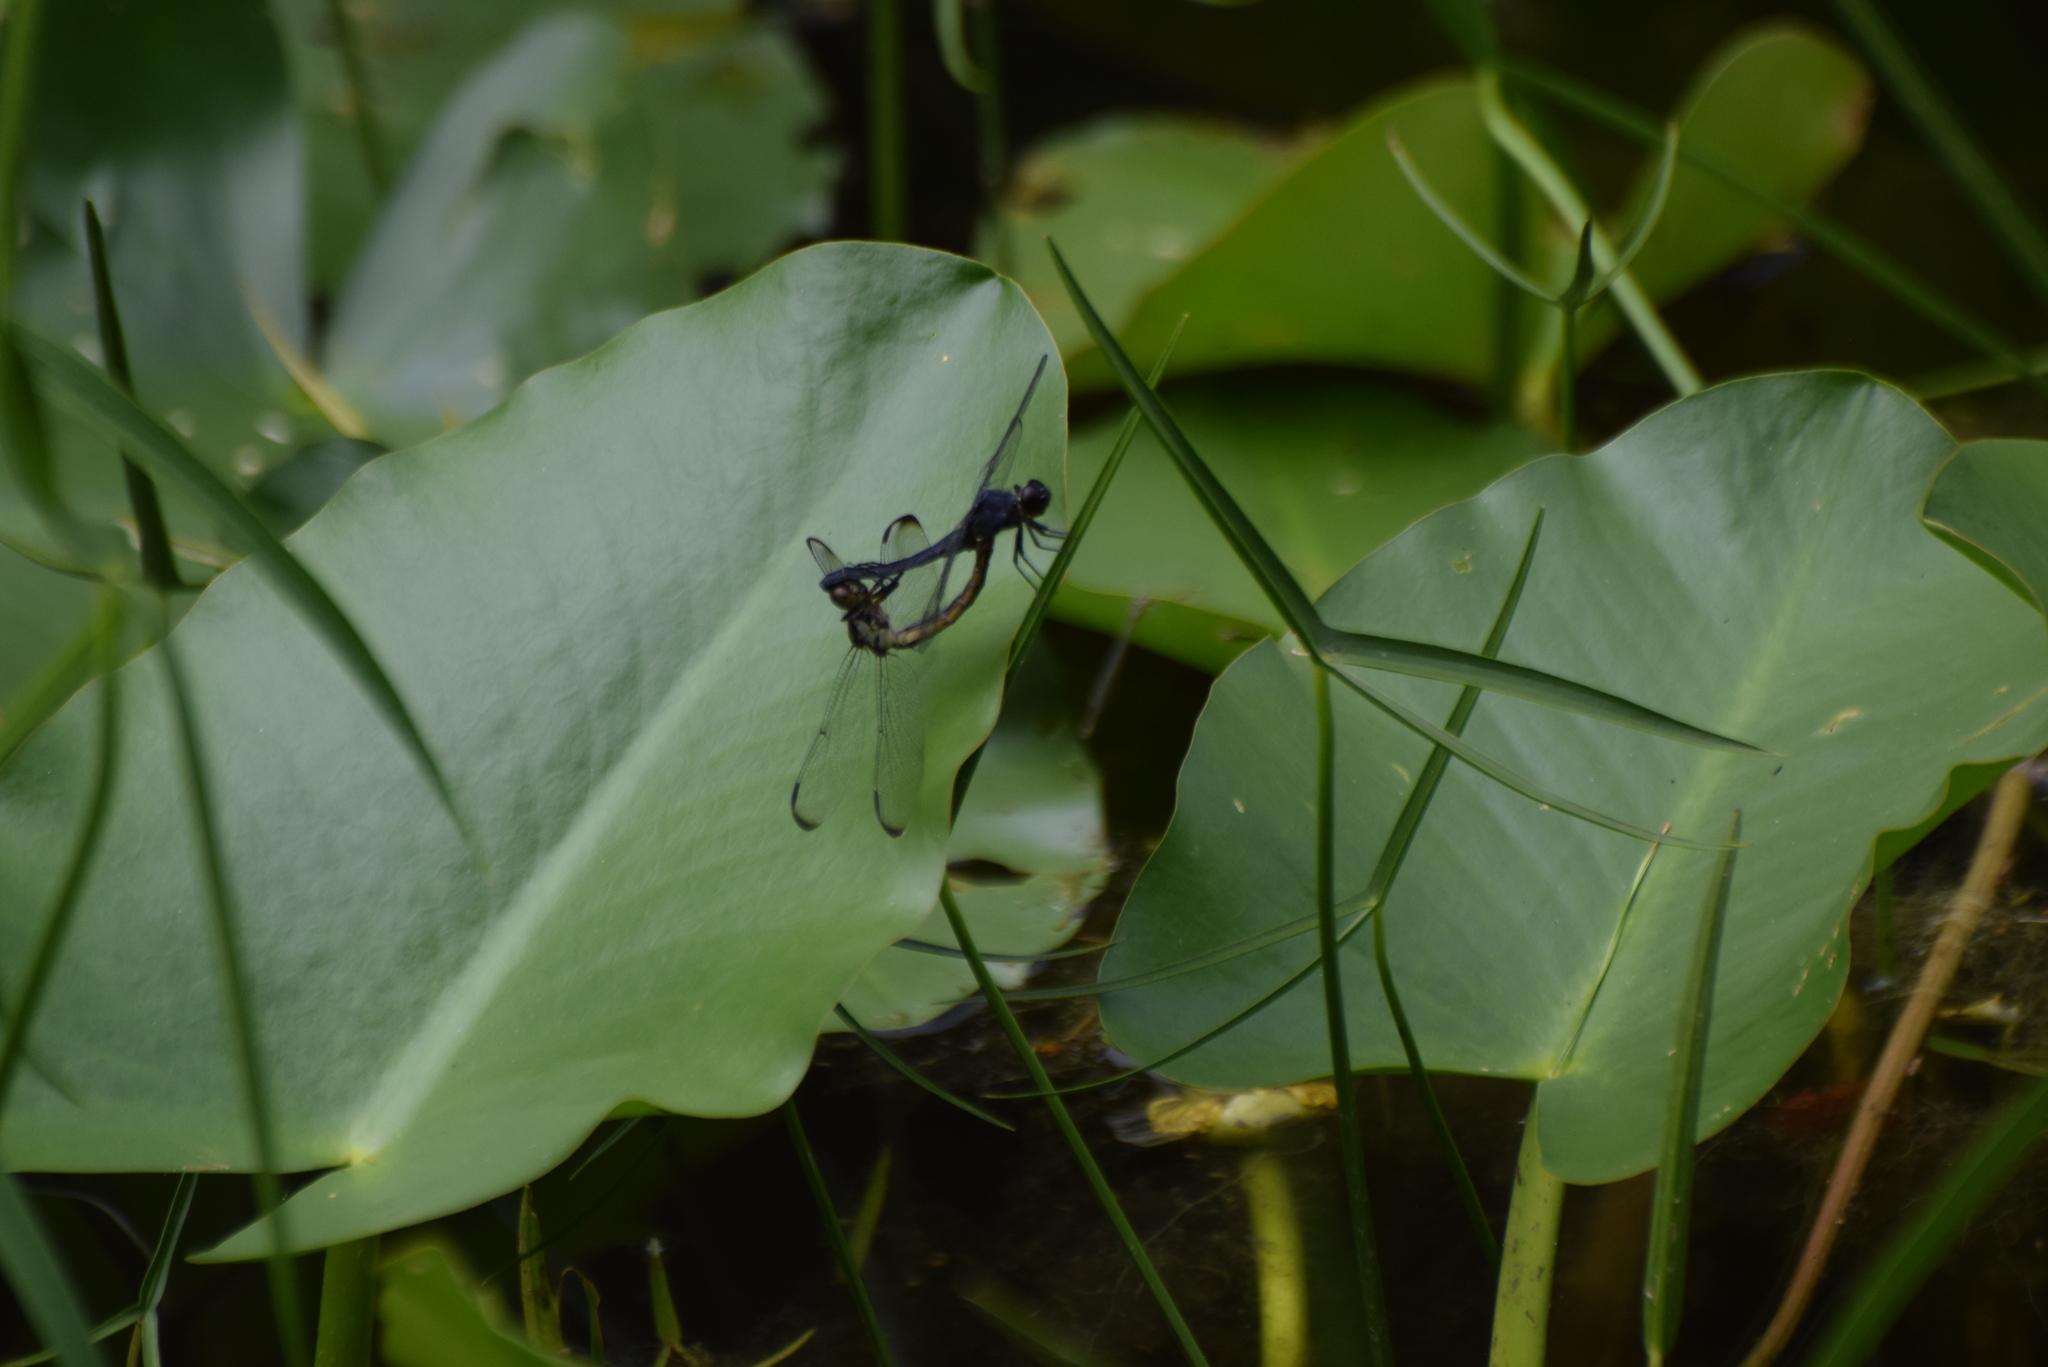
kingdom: Animalia
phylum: Arthropoda
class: Insecta
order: Odonata
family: Libellulidae
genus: Libellula
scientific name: Libellula incesta
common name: Slaty skimmer
